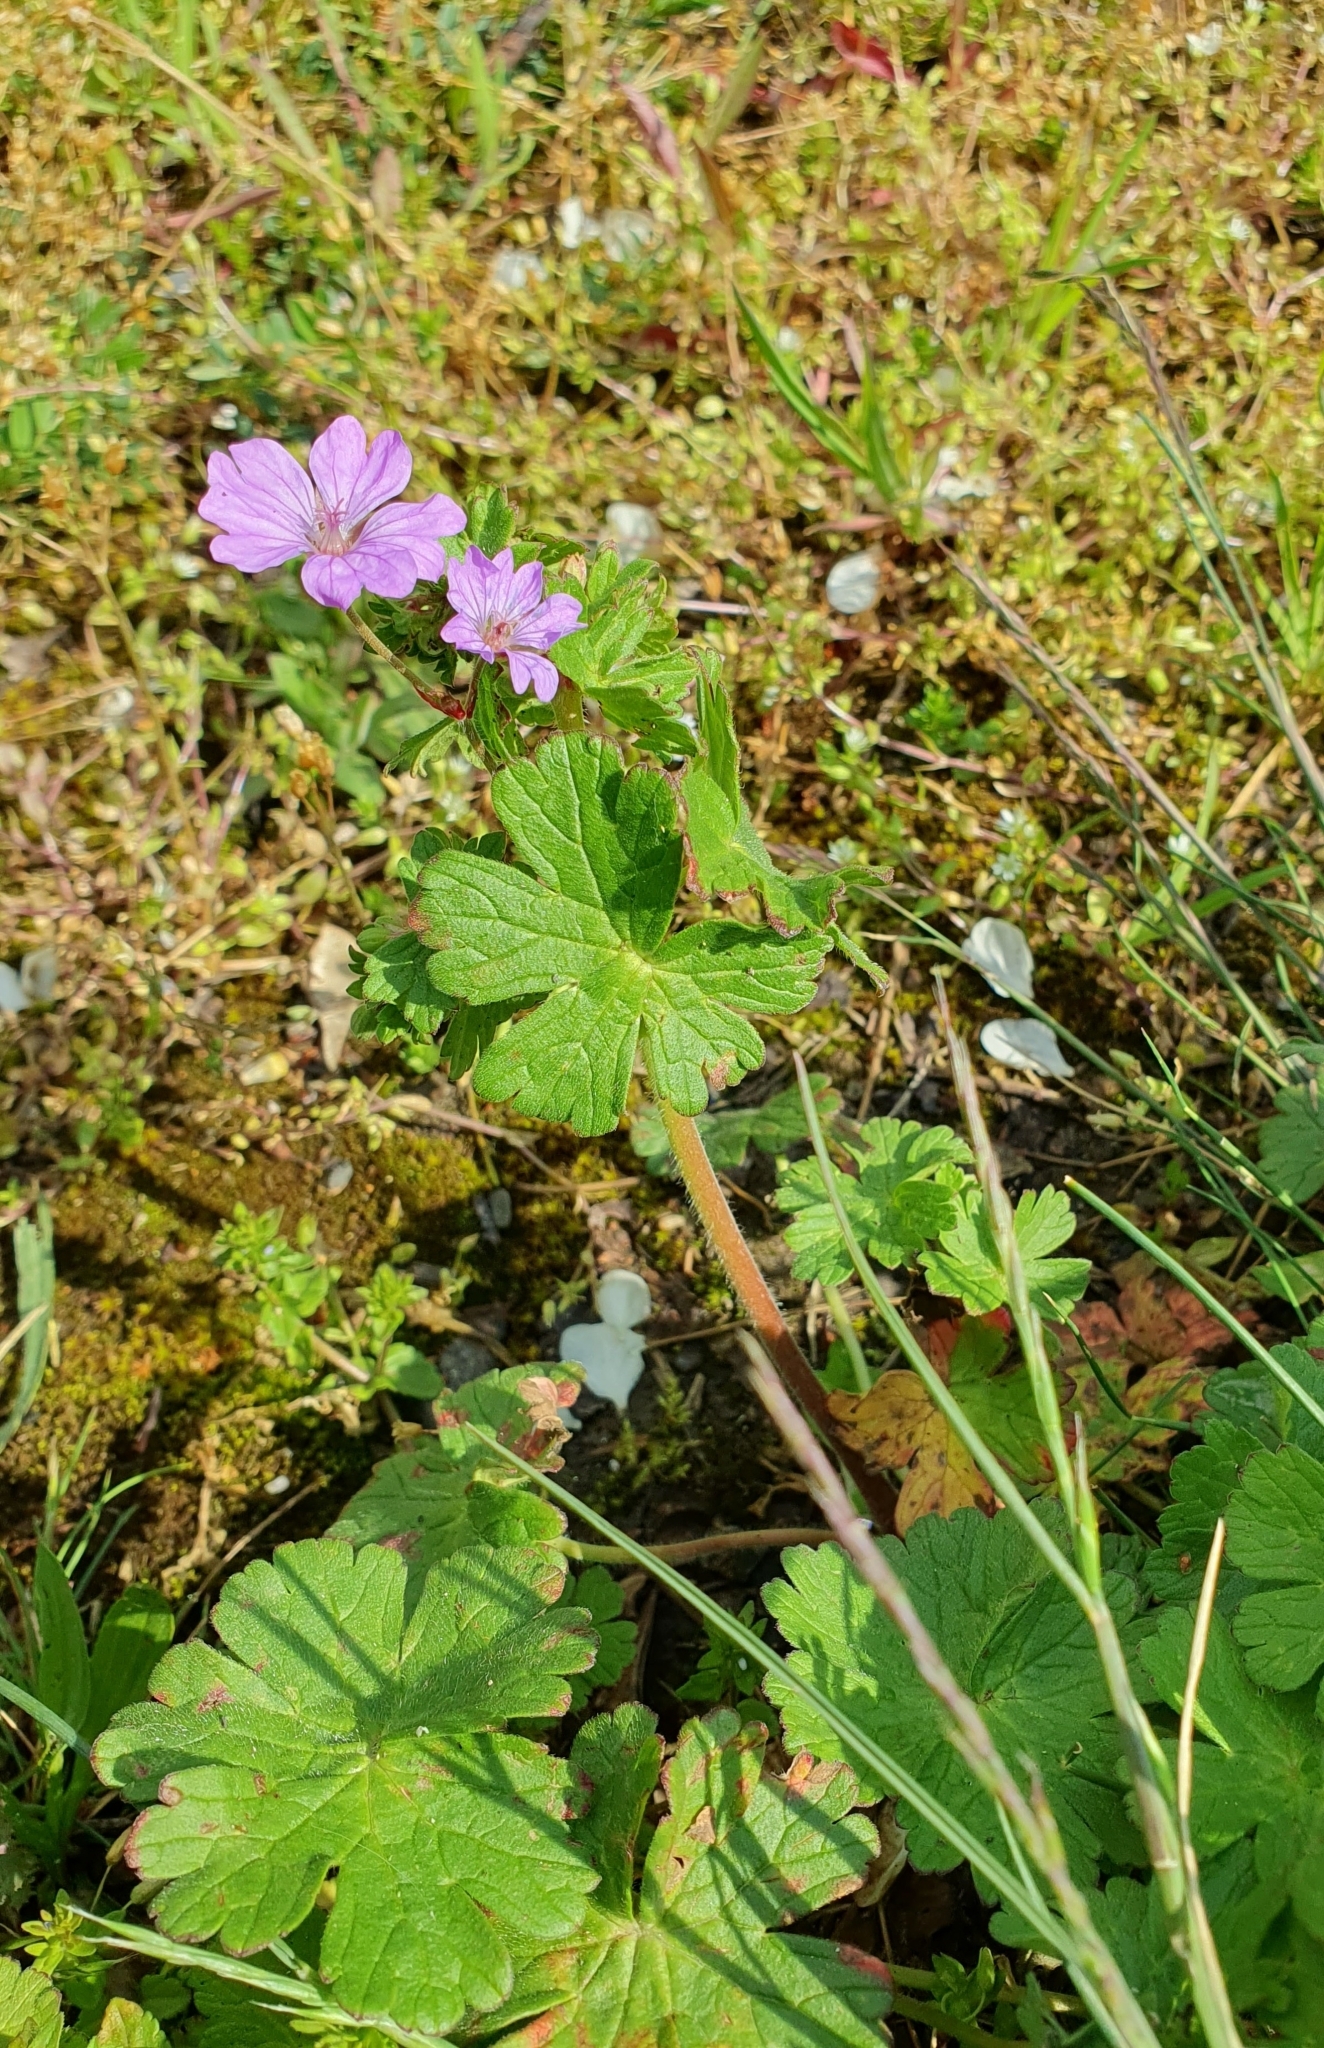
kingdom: Plantae
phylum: Tracheophyta
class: Magnoliopsida
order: Geraniales
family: Geraniaceae
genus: Geranium
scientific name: Geranium pyrenaicum
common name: Hedgerow crane's-bill
